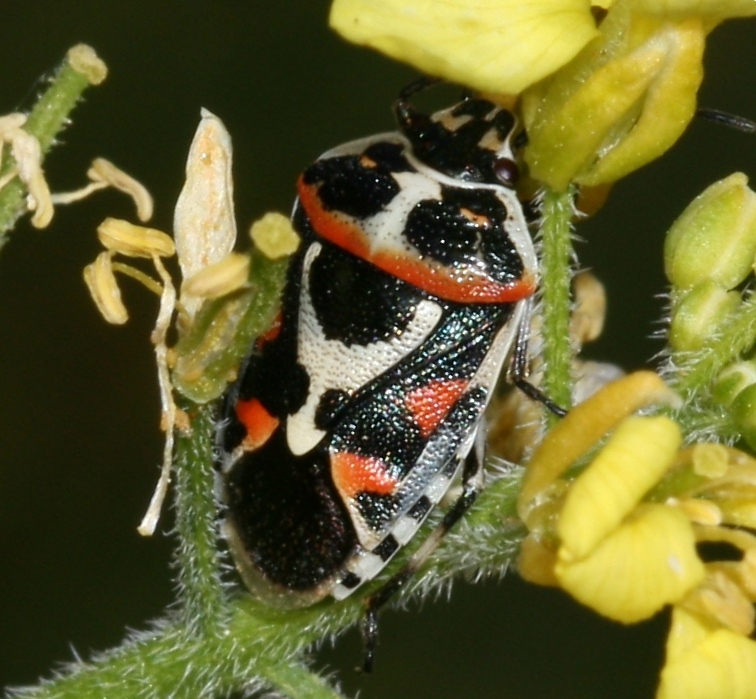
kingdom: Animalia
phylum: Arthropoda
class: Insecta
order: Hemiptera
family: Pentatomidae
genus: Eurydema
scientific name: Eurydema ornata
